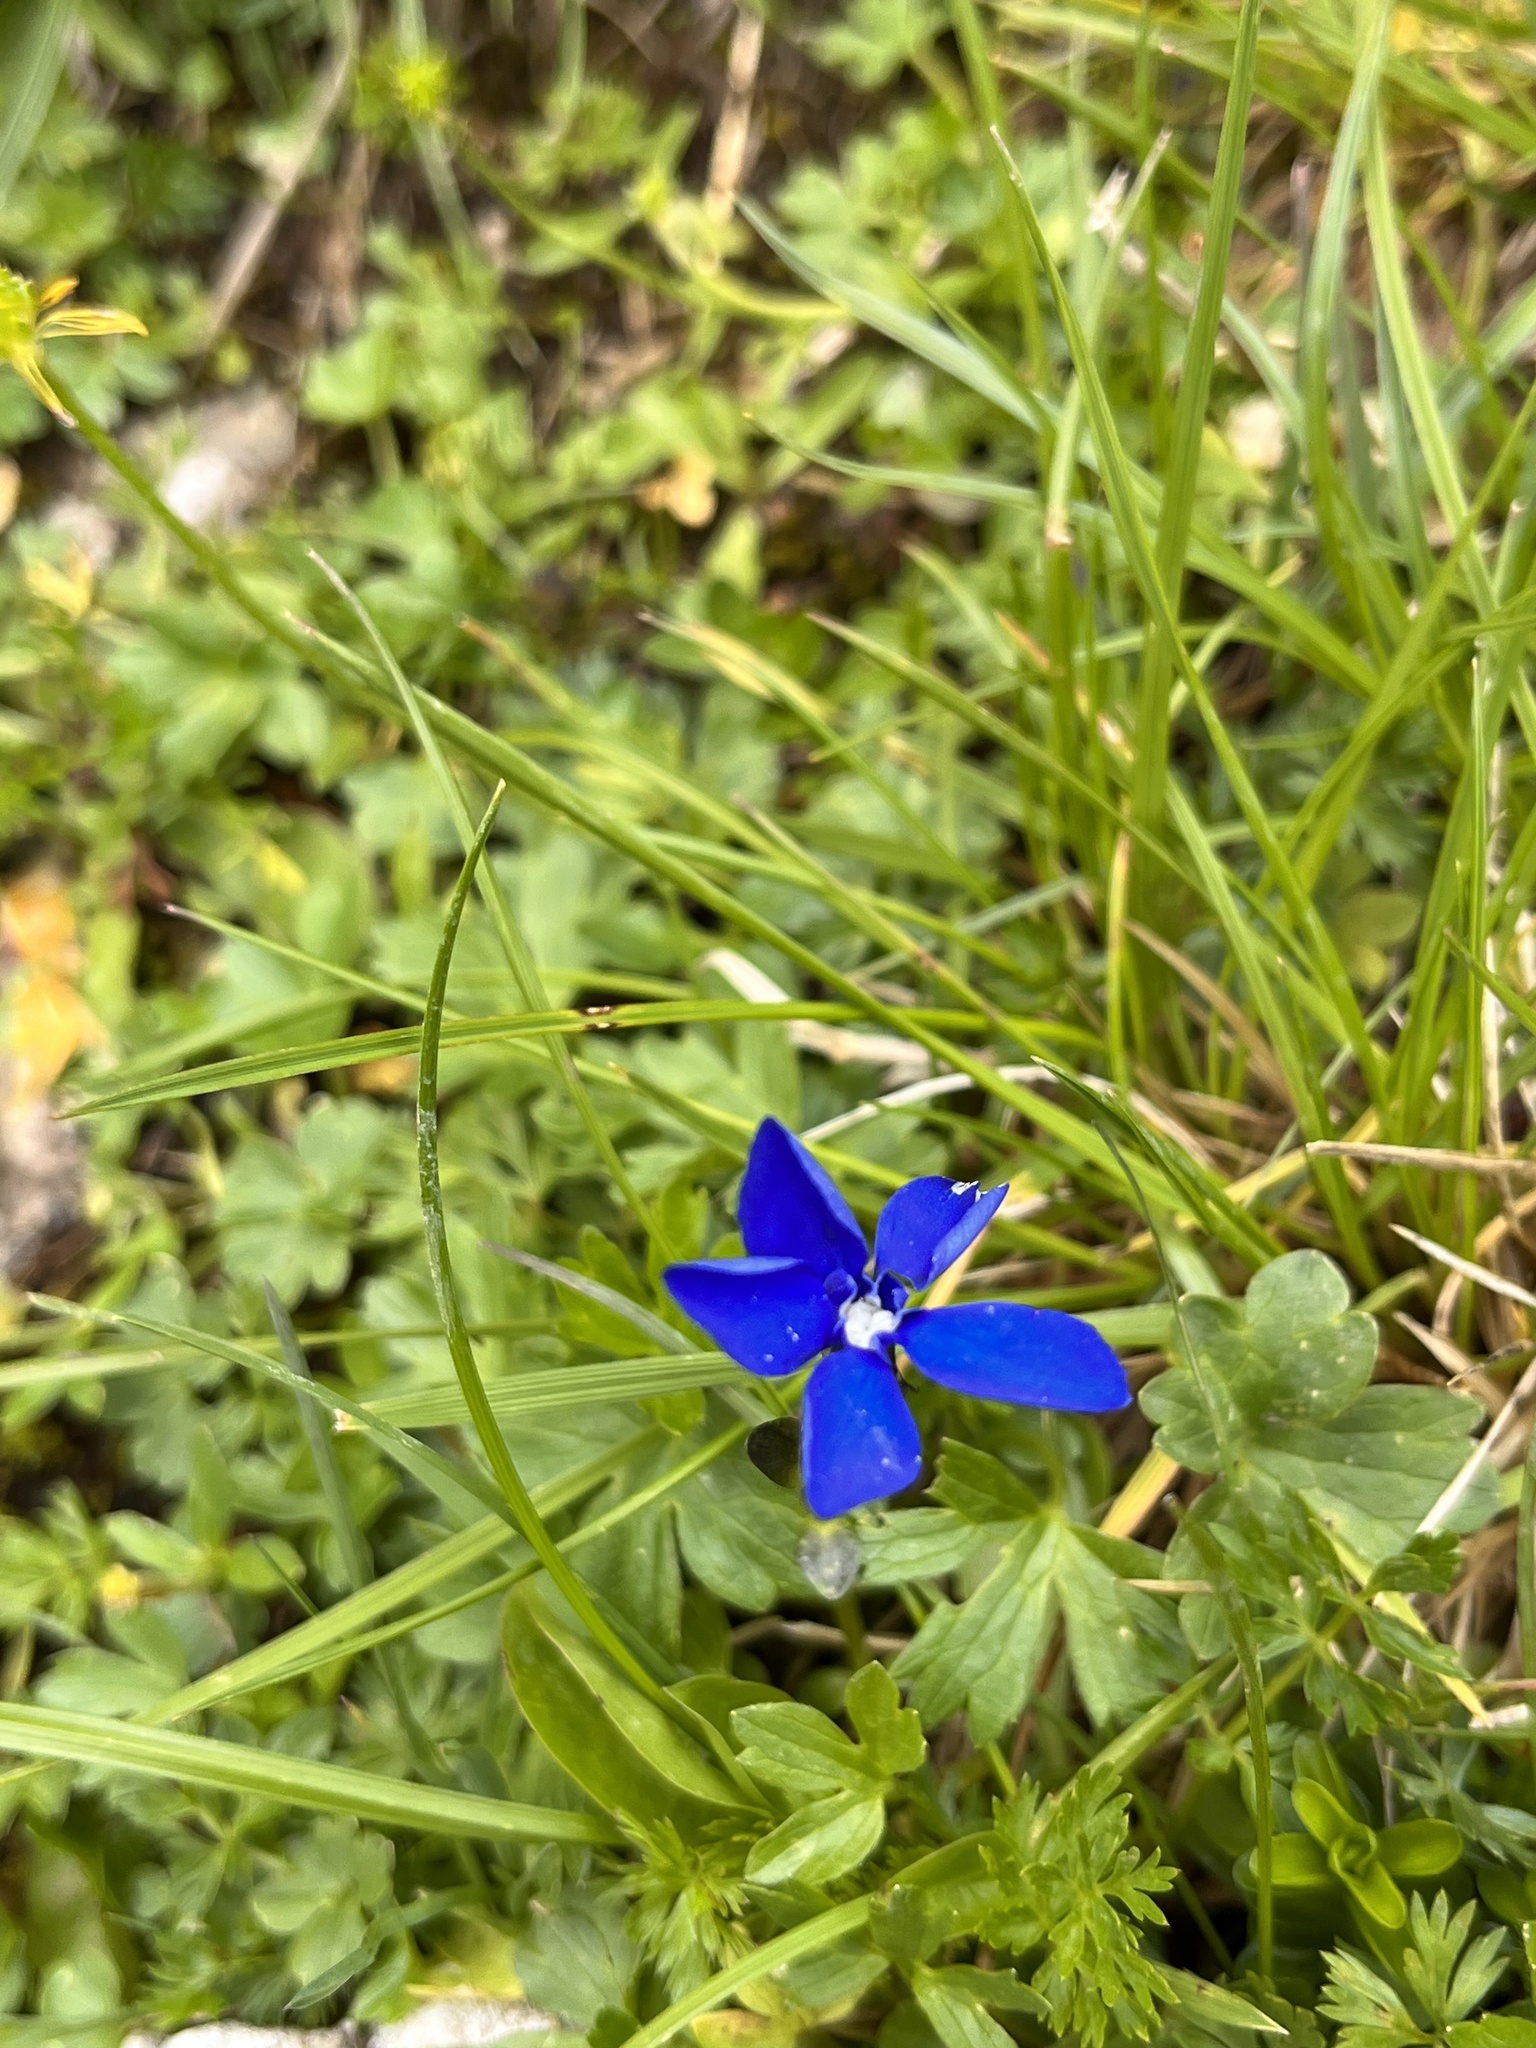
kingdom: Plantae
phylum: Tracheophyta
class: Magnoliopsida
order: Gentianales
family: Gentianaceae
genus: Gentiana
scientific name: Gentiana bavarica
